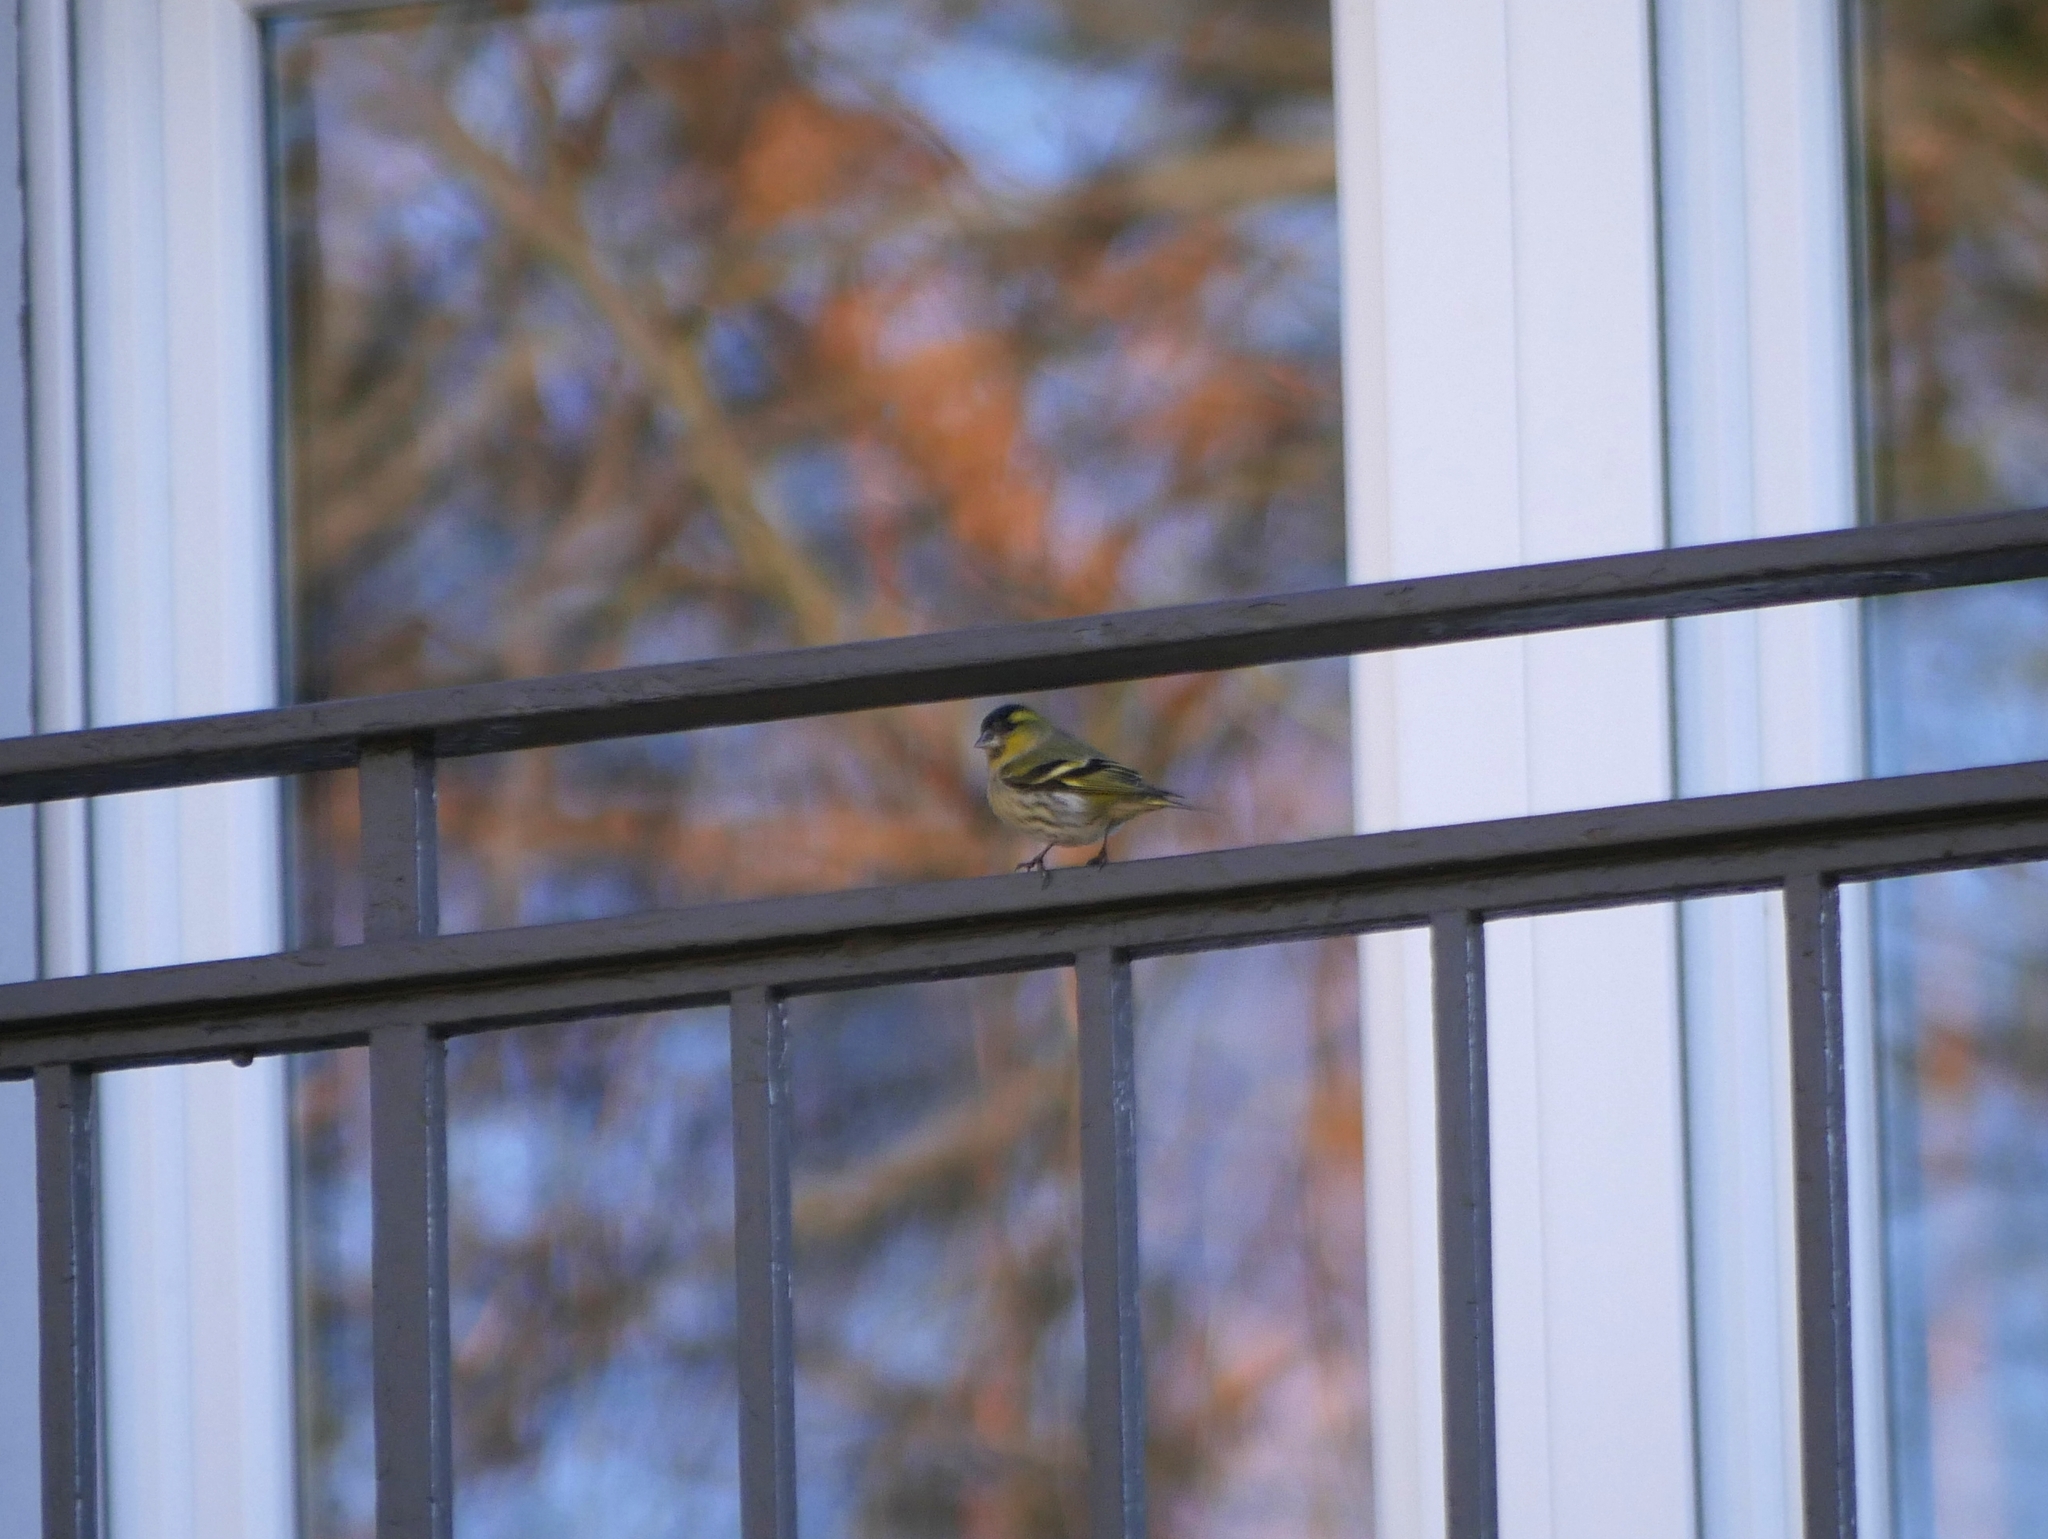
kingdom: Animalia
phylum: Chordata
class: Aves
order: Passeriformes
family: Fringillidae
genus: Spinus
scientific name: Spinus spinus
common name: Eurasian siskin
